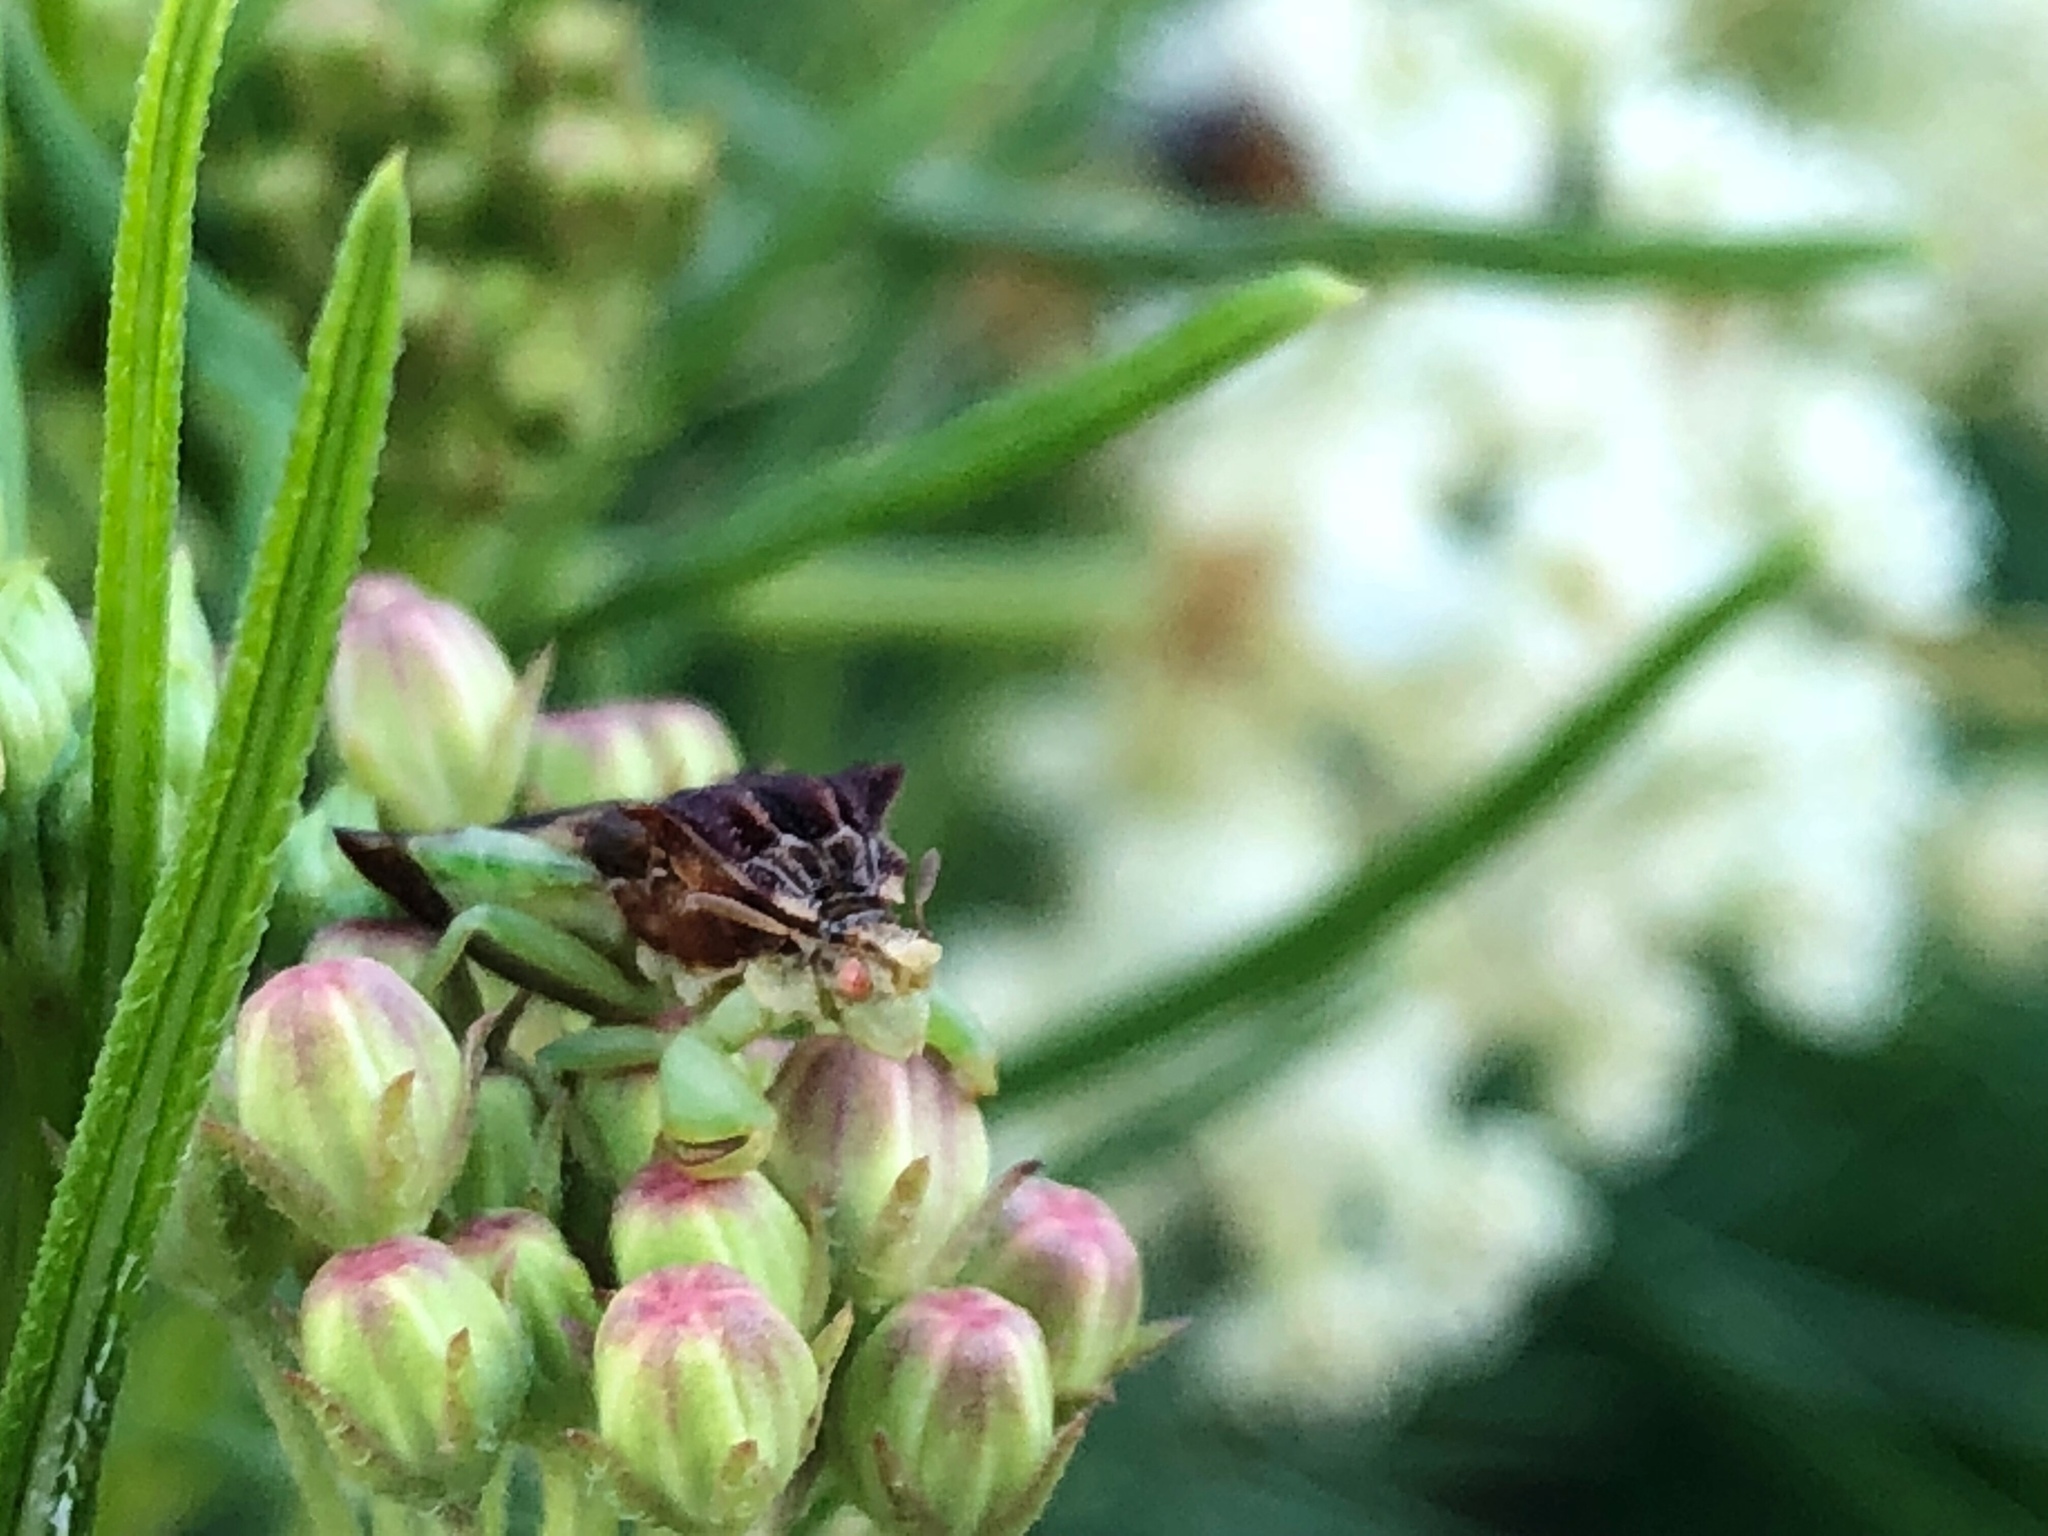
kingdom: Animalia
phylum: Arthropoda
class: Insecta
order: Hemiptera
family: Reduviidae
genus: Phymata
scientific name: Phymata pennsylvanica
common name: Pennsylvania ambush bug
